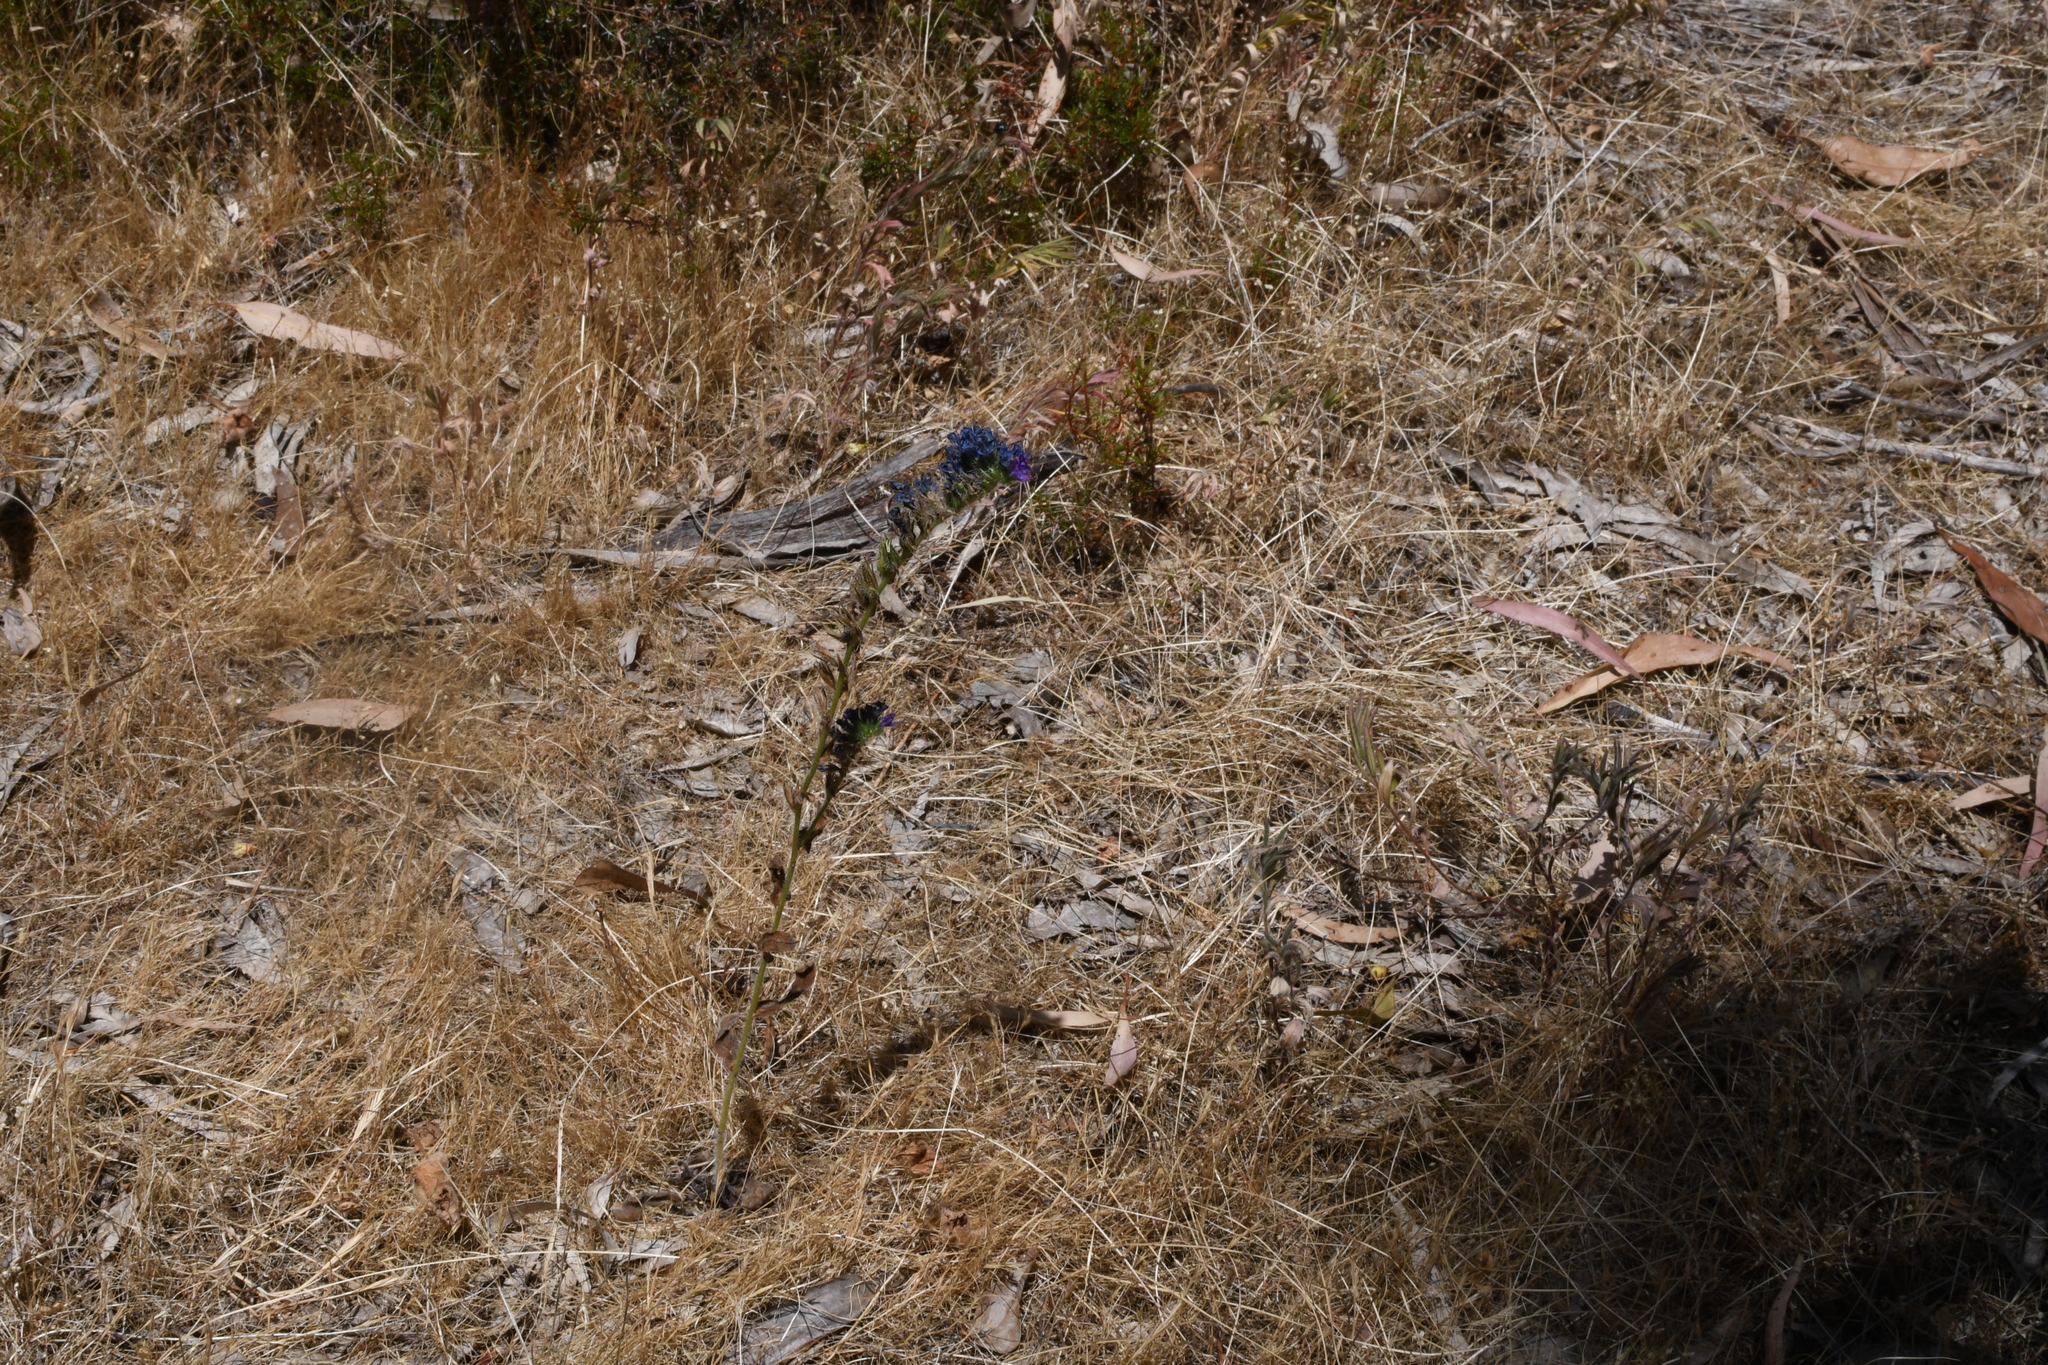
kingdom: Plantae
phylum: Tracheophyta
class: Magnoliopsida
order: Boraginales
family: Boraginaceae
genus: Echium
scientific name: Echium plantagineum
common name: Purple viper's-bugloss
